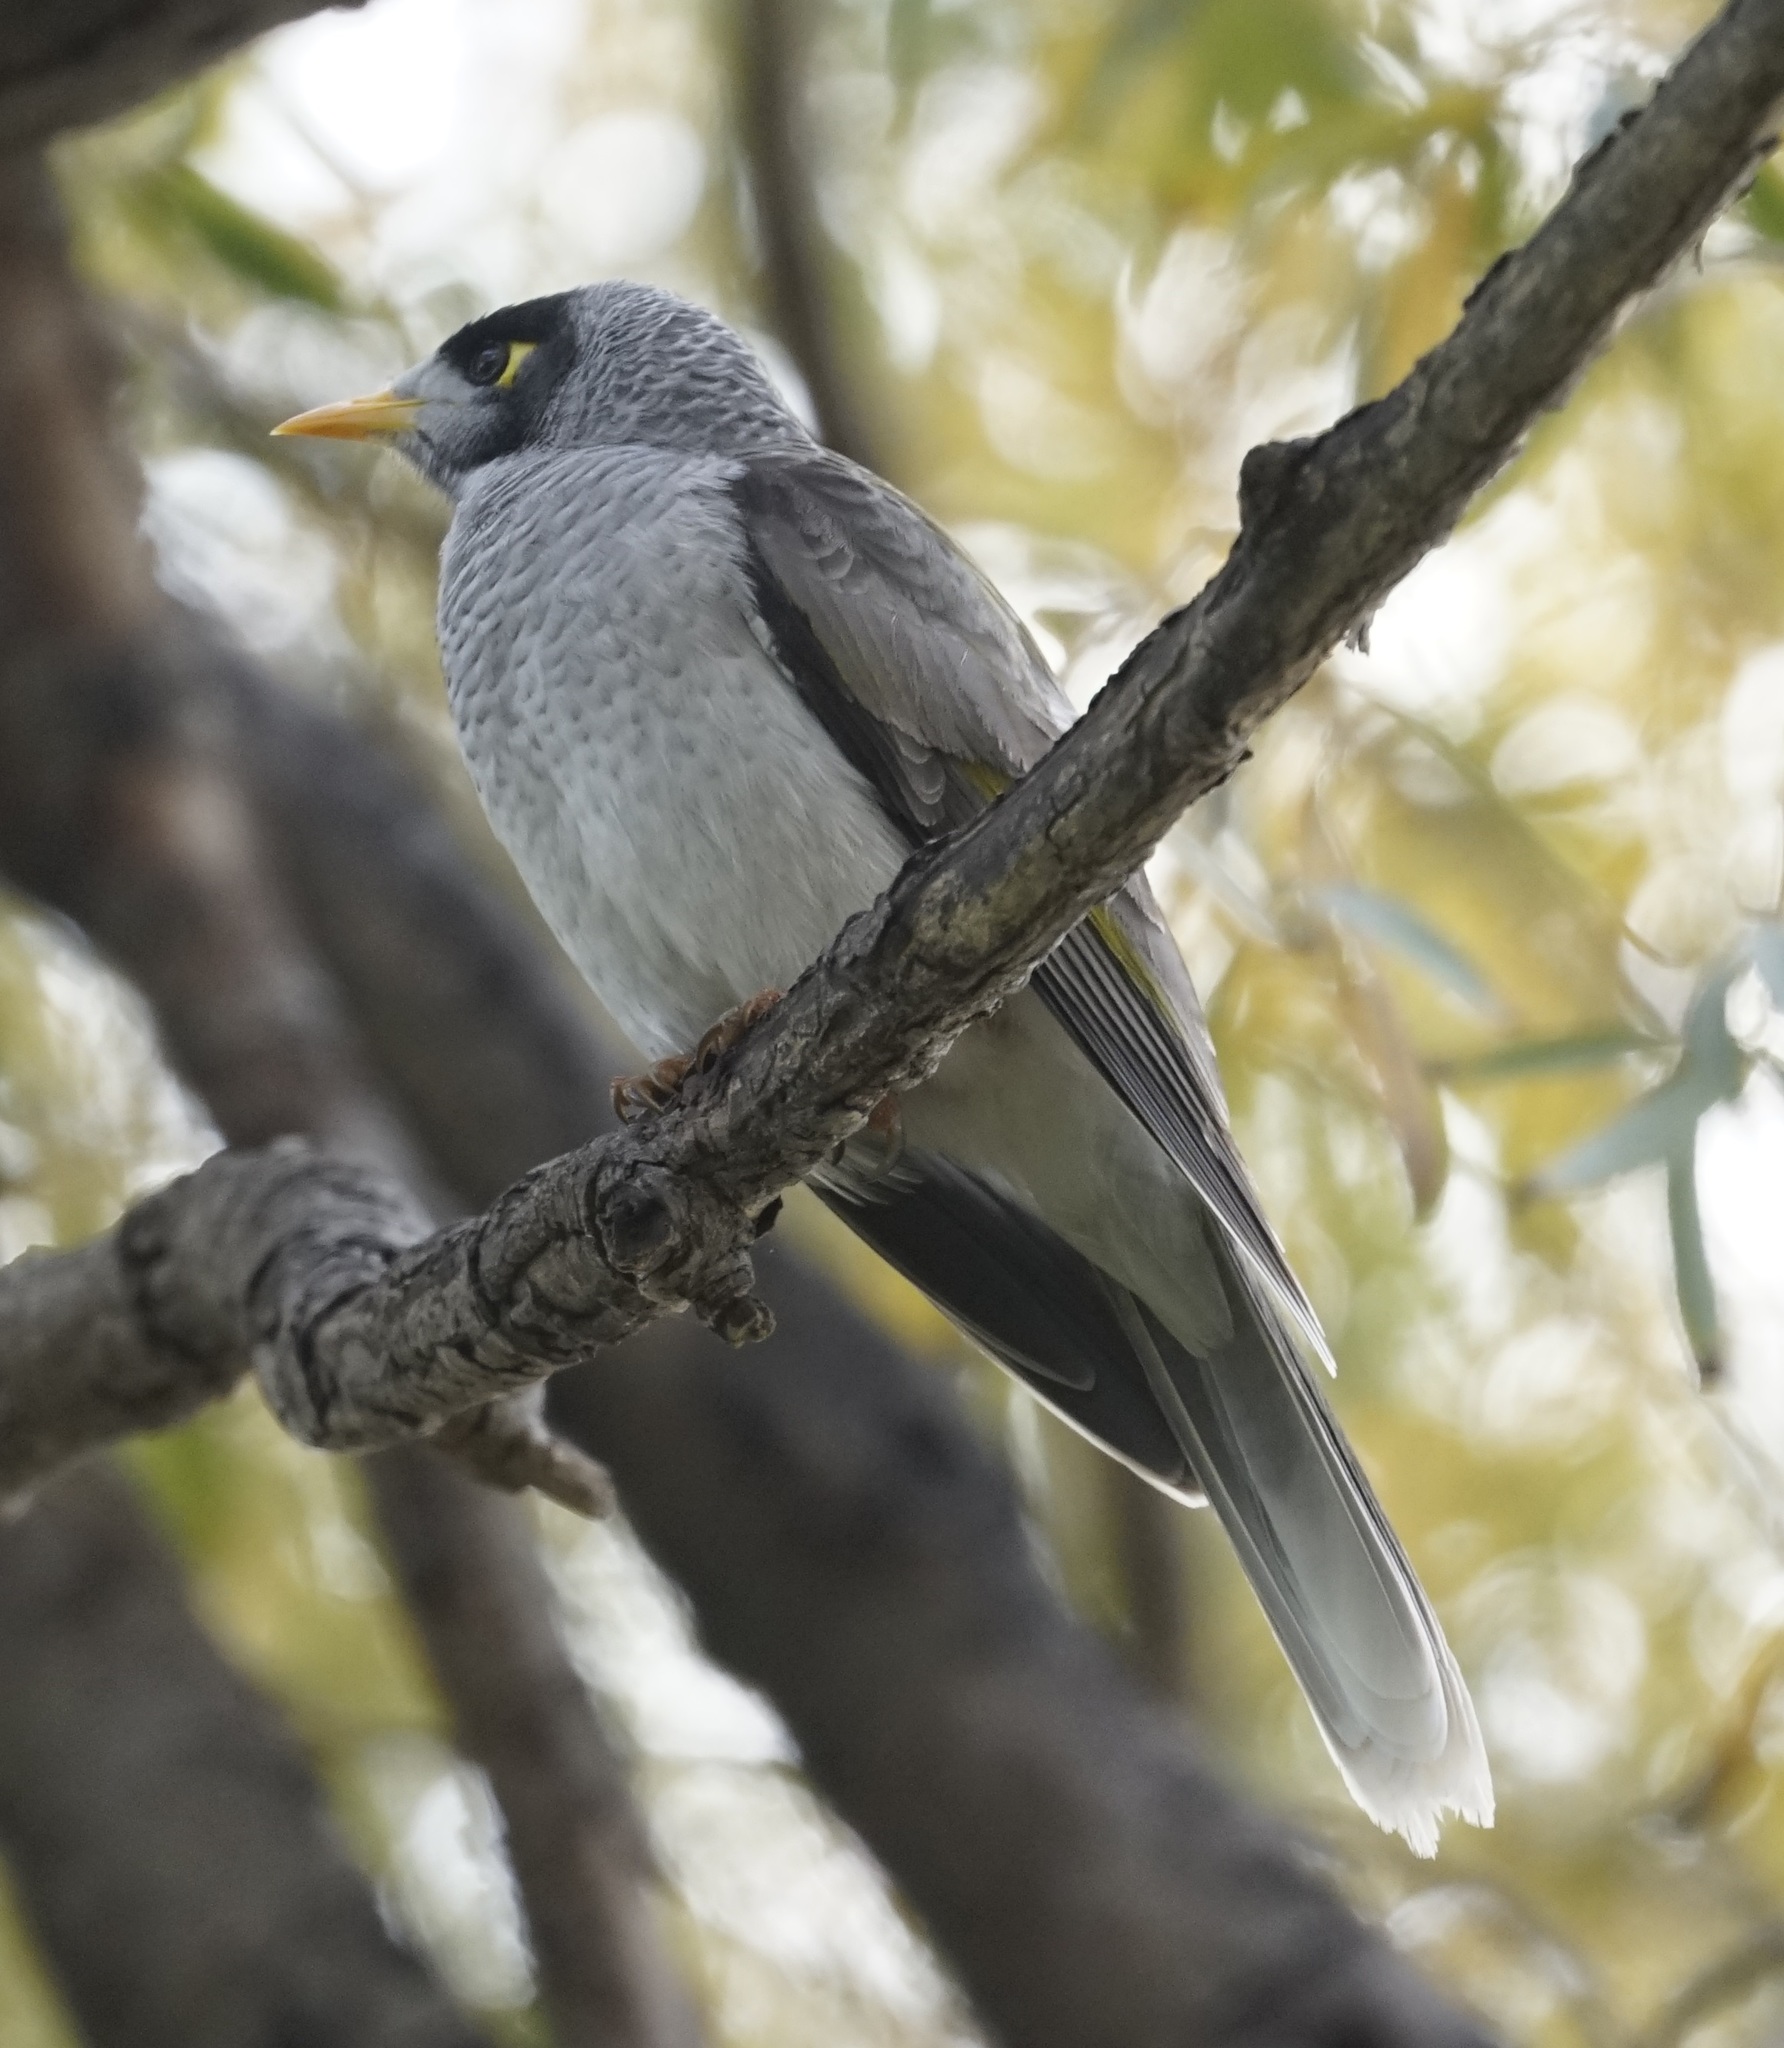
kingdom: Animalia
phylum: Chordata
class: Aves
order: Passeriformes
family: Meliphagidae
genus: Manorina
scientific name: Manorina melanocephala
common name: Noisy miner
